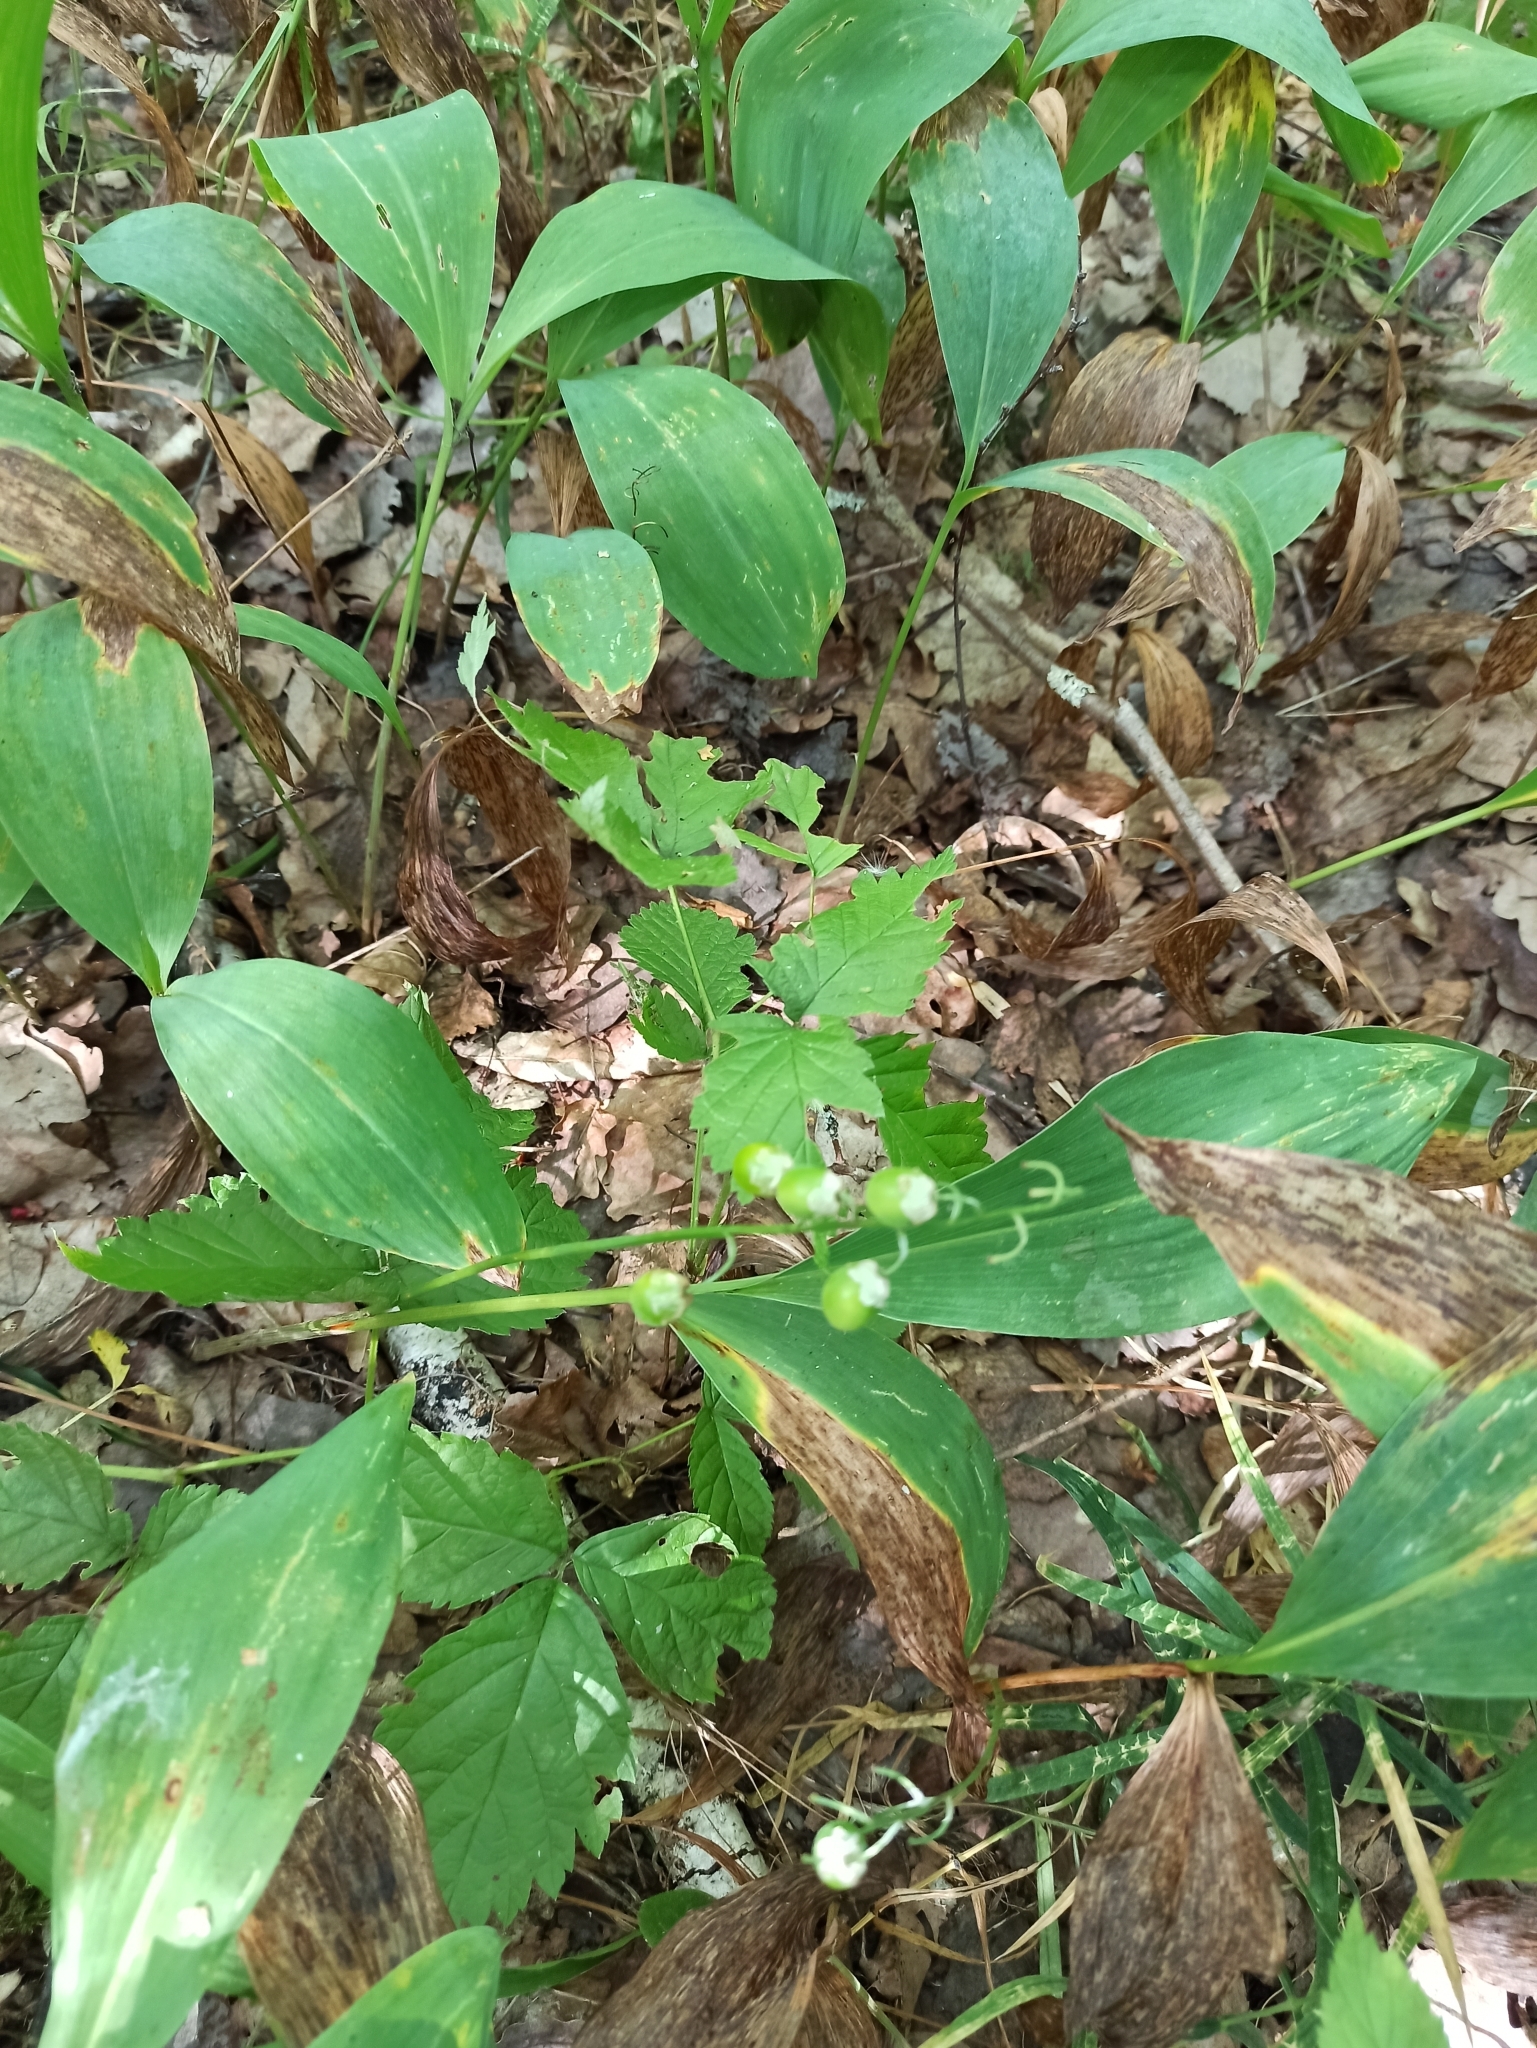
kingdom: Plantae
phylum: Tracheophyta
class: Liliopsida
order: Asparagales
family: Asparagaceae
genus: Convallaria
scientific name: Convallaria majalis
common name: Lily-of-the-valley
